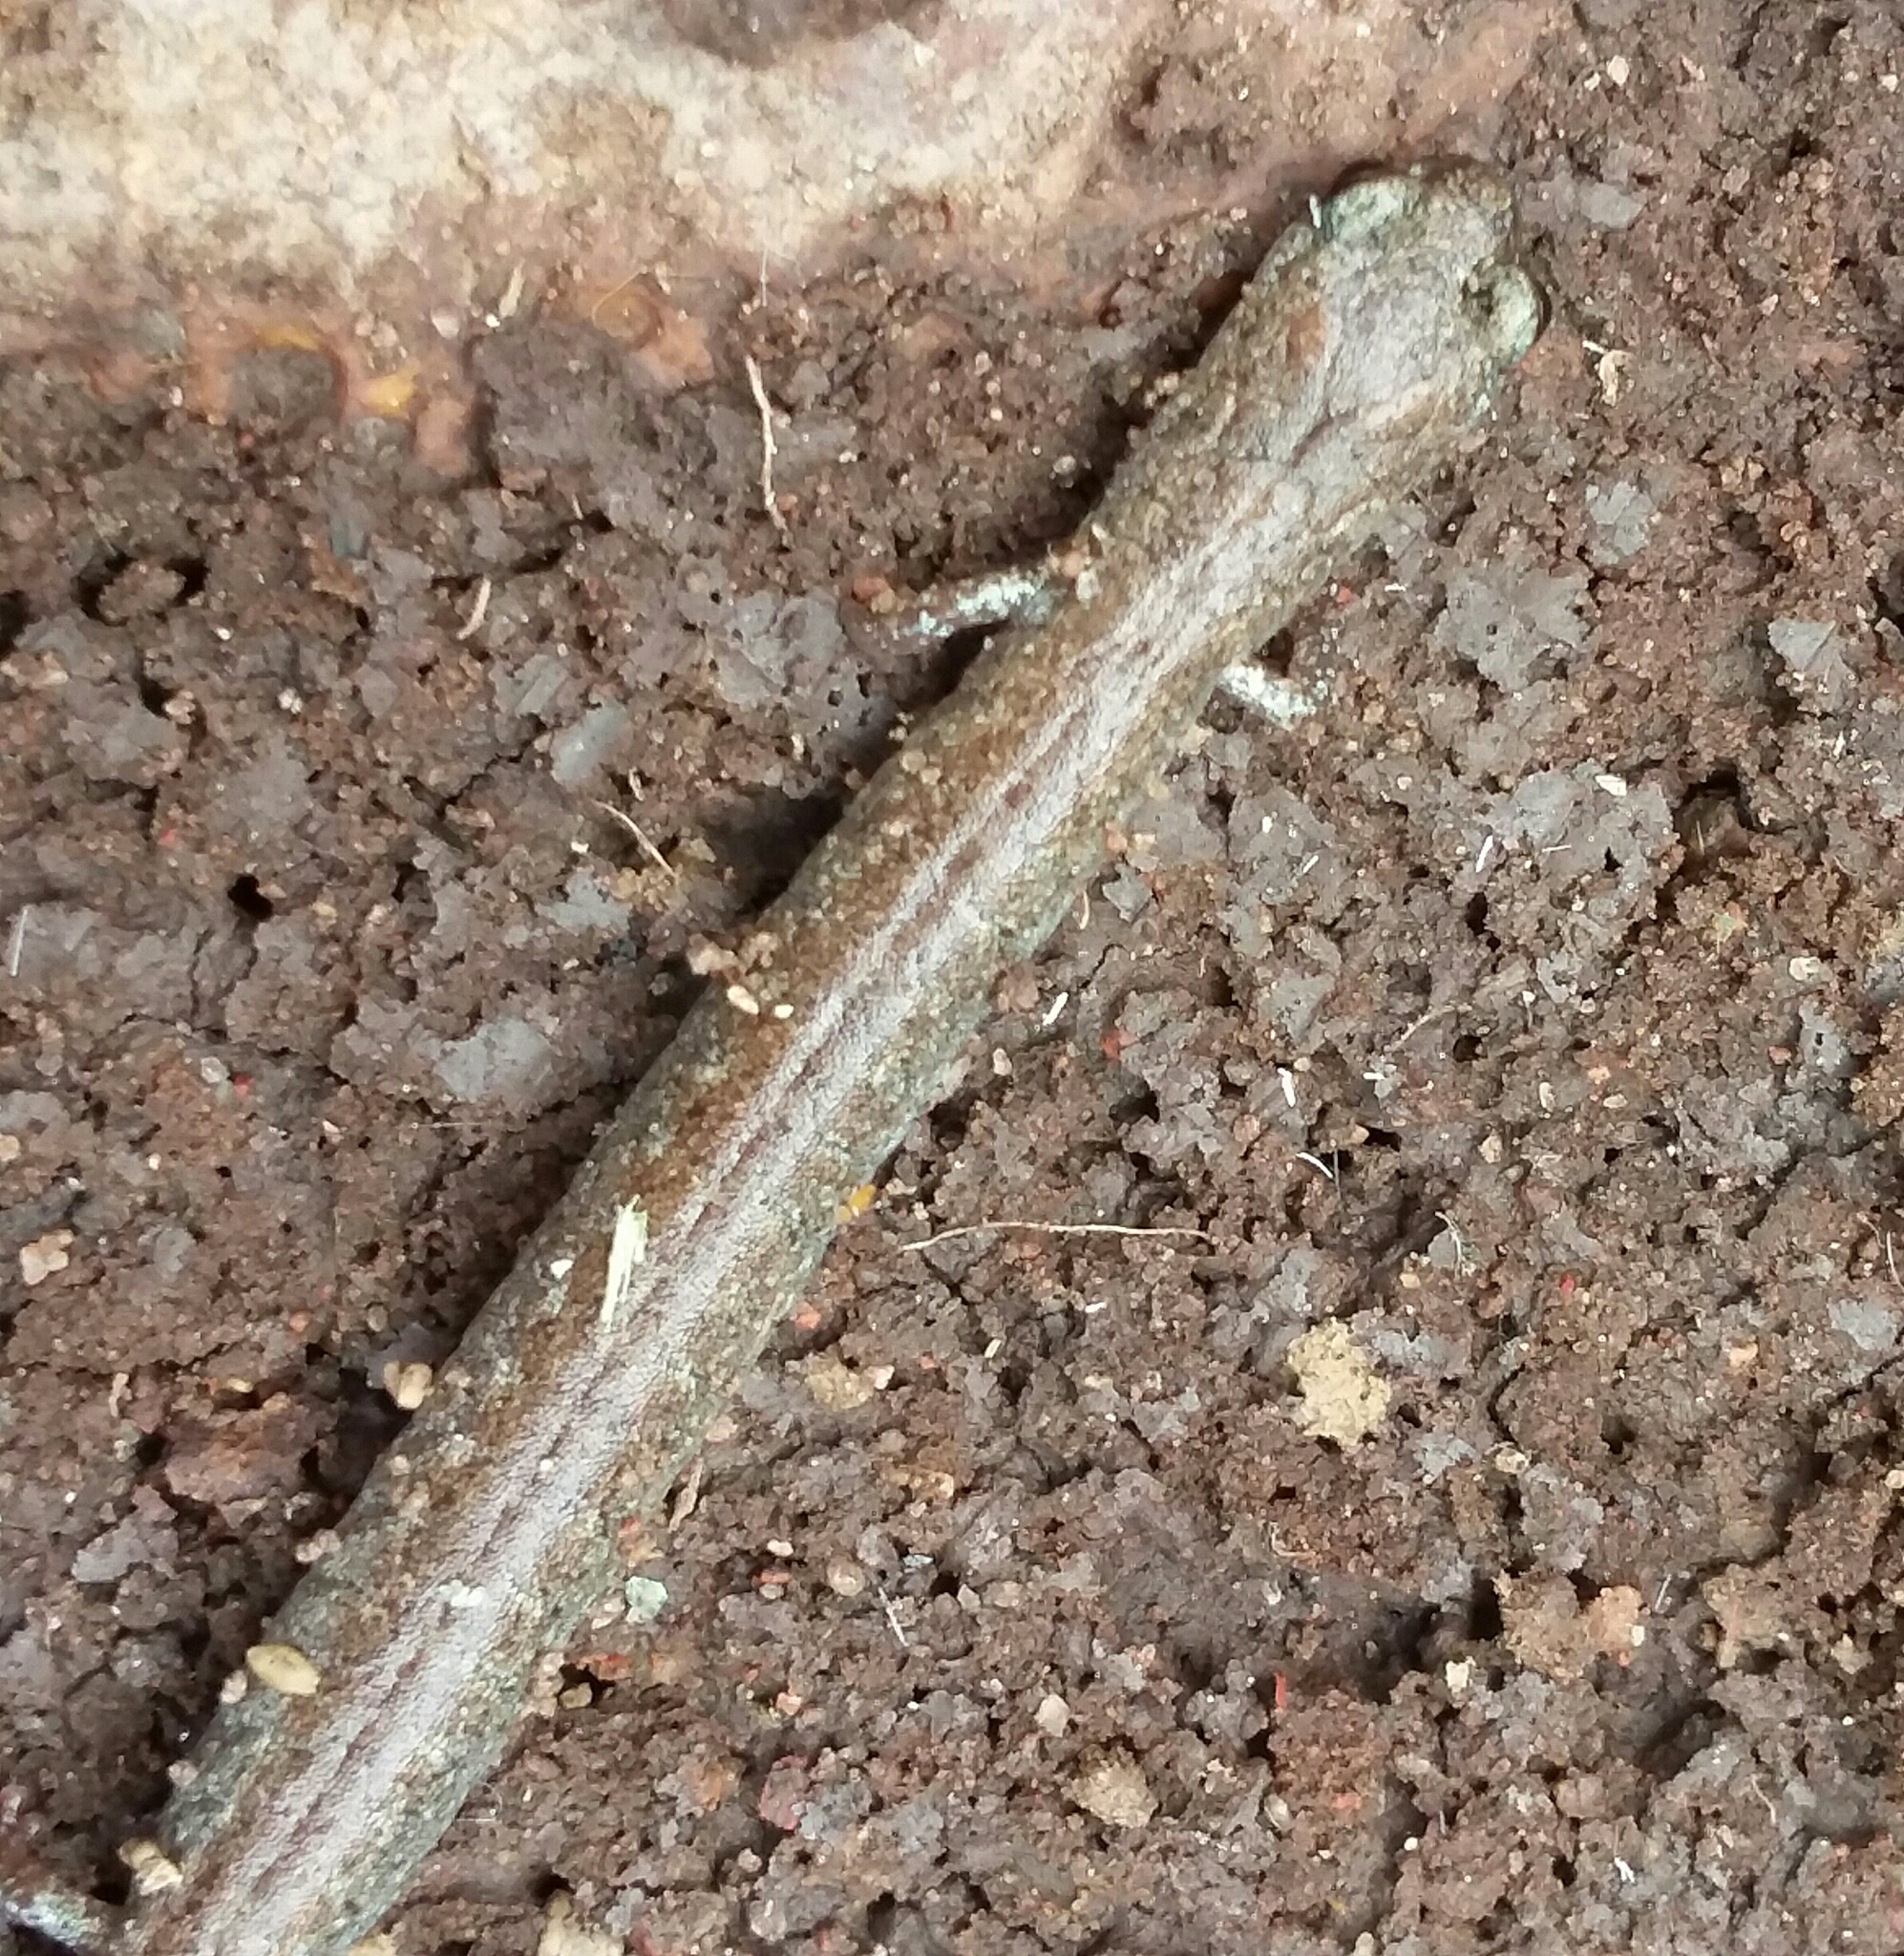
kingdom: Animalia
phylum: Chordata
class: Amphibia
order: Caudata
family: Plethodontidae
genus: Batrachoseps
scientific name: Batrachoseps major
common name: Garden slender salamander
